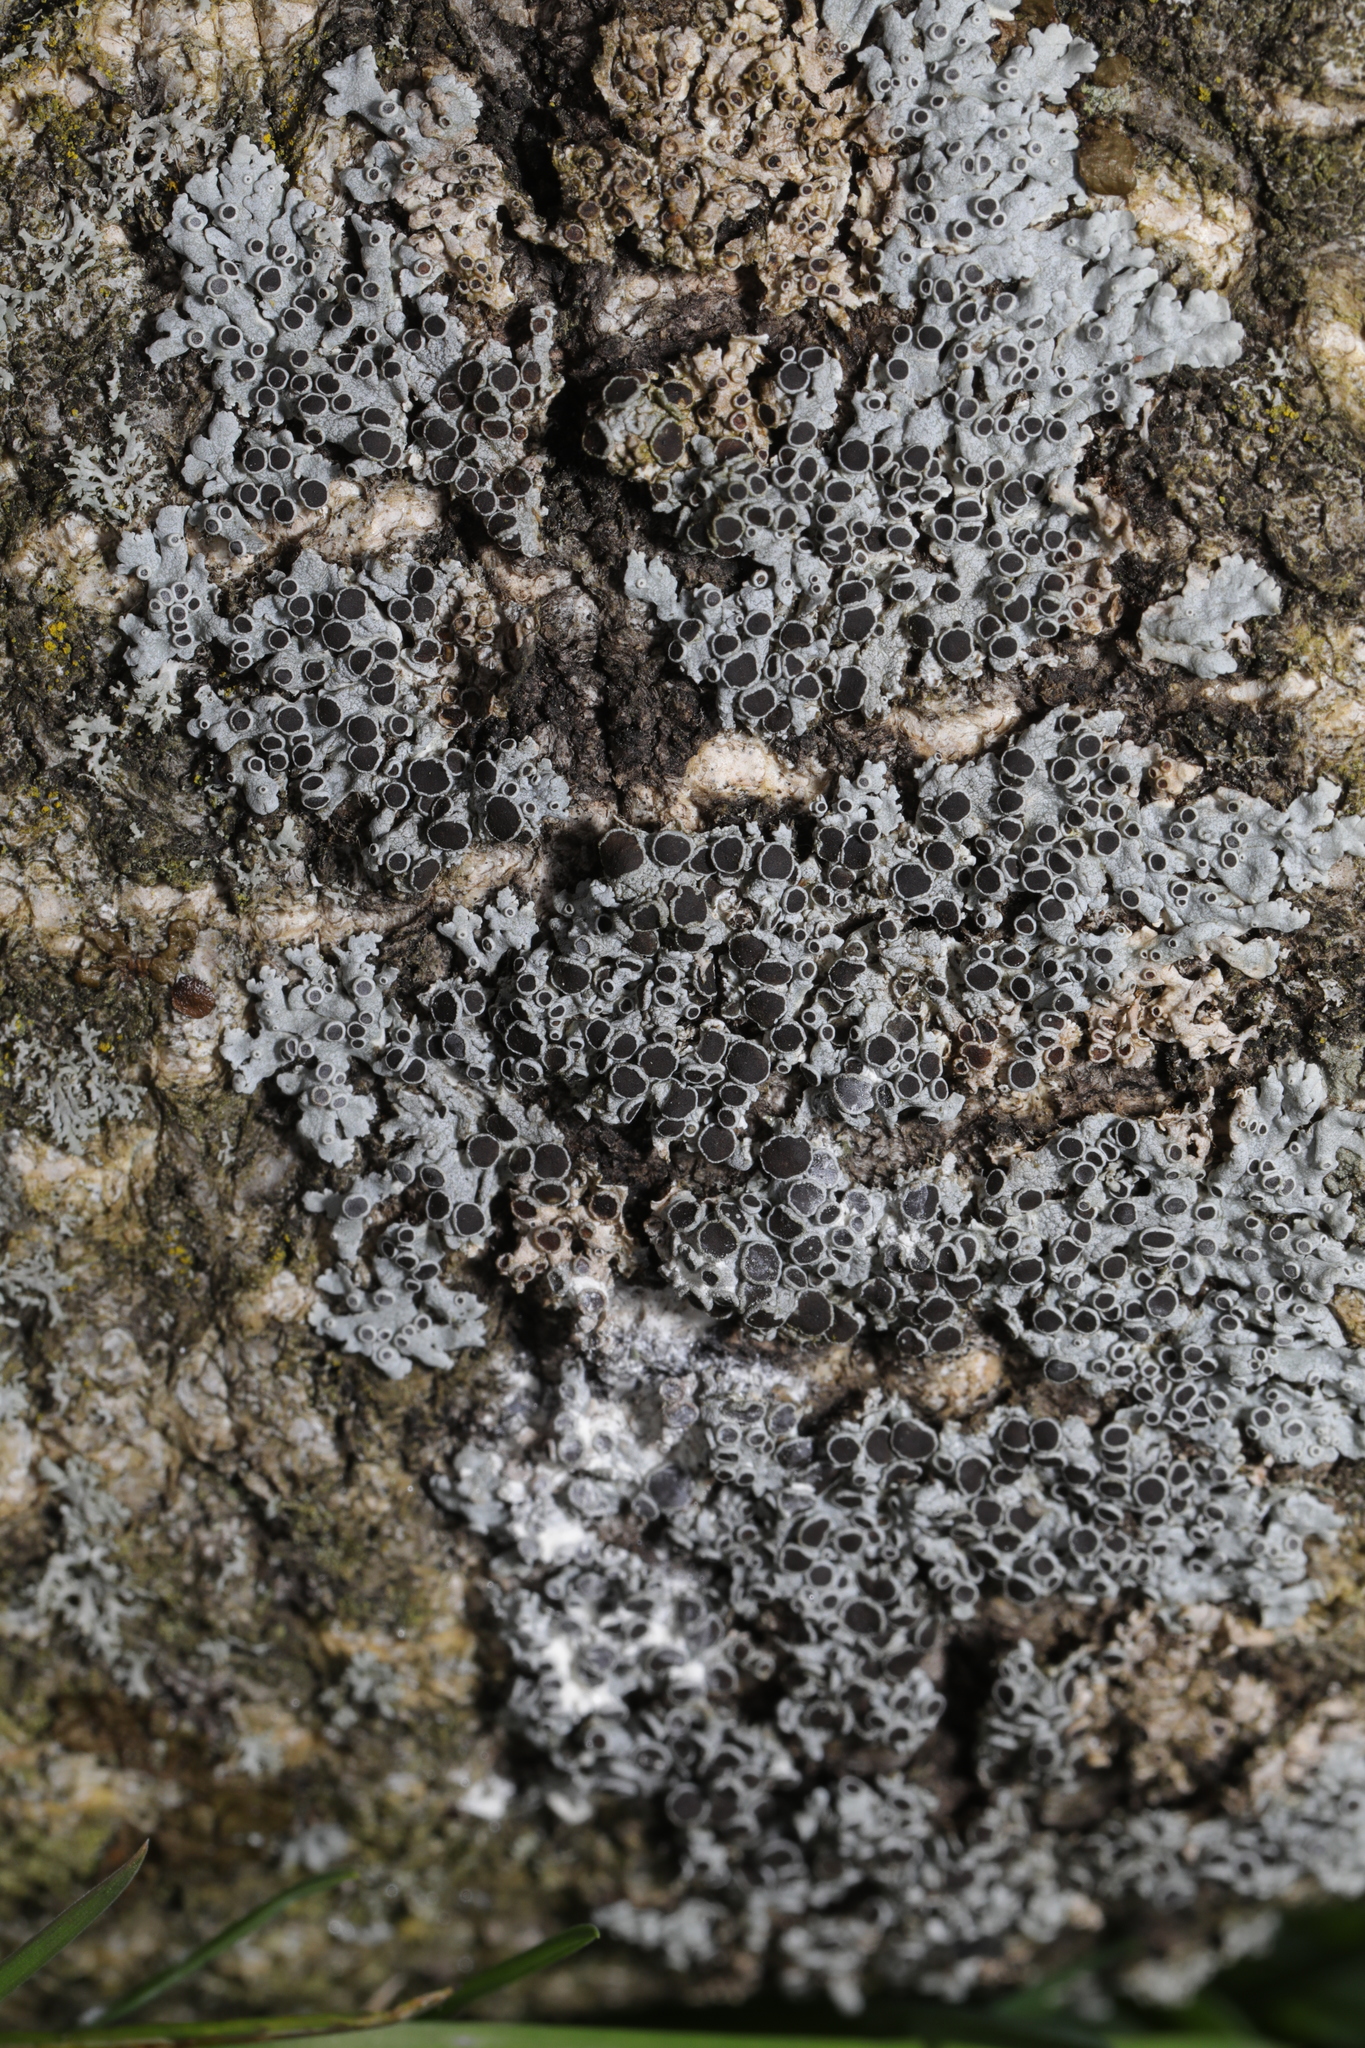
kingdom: Fungi
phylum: Ascomycota
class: Lecanoromycetes
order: Caliciales
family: Physciaceae
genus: Physcia
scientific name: Physcia aipolia
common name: Hoary rosette lichen
